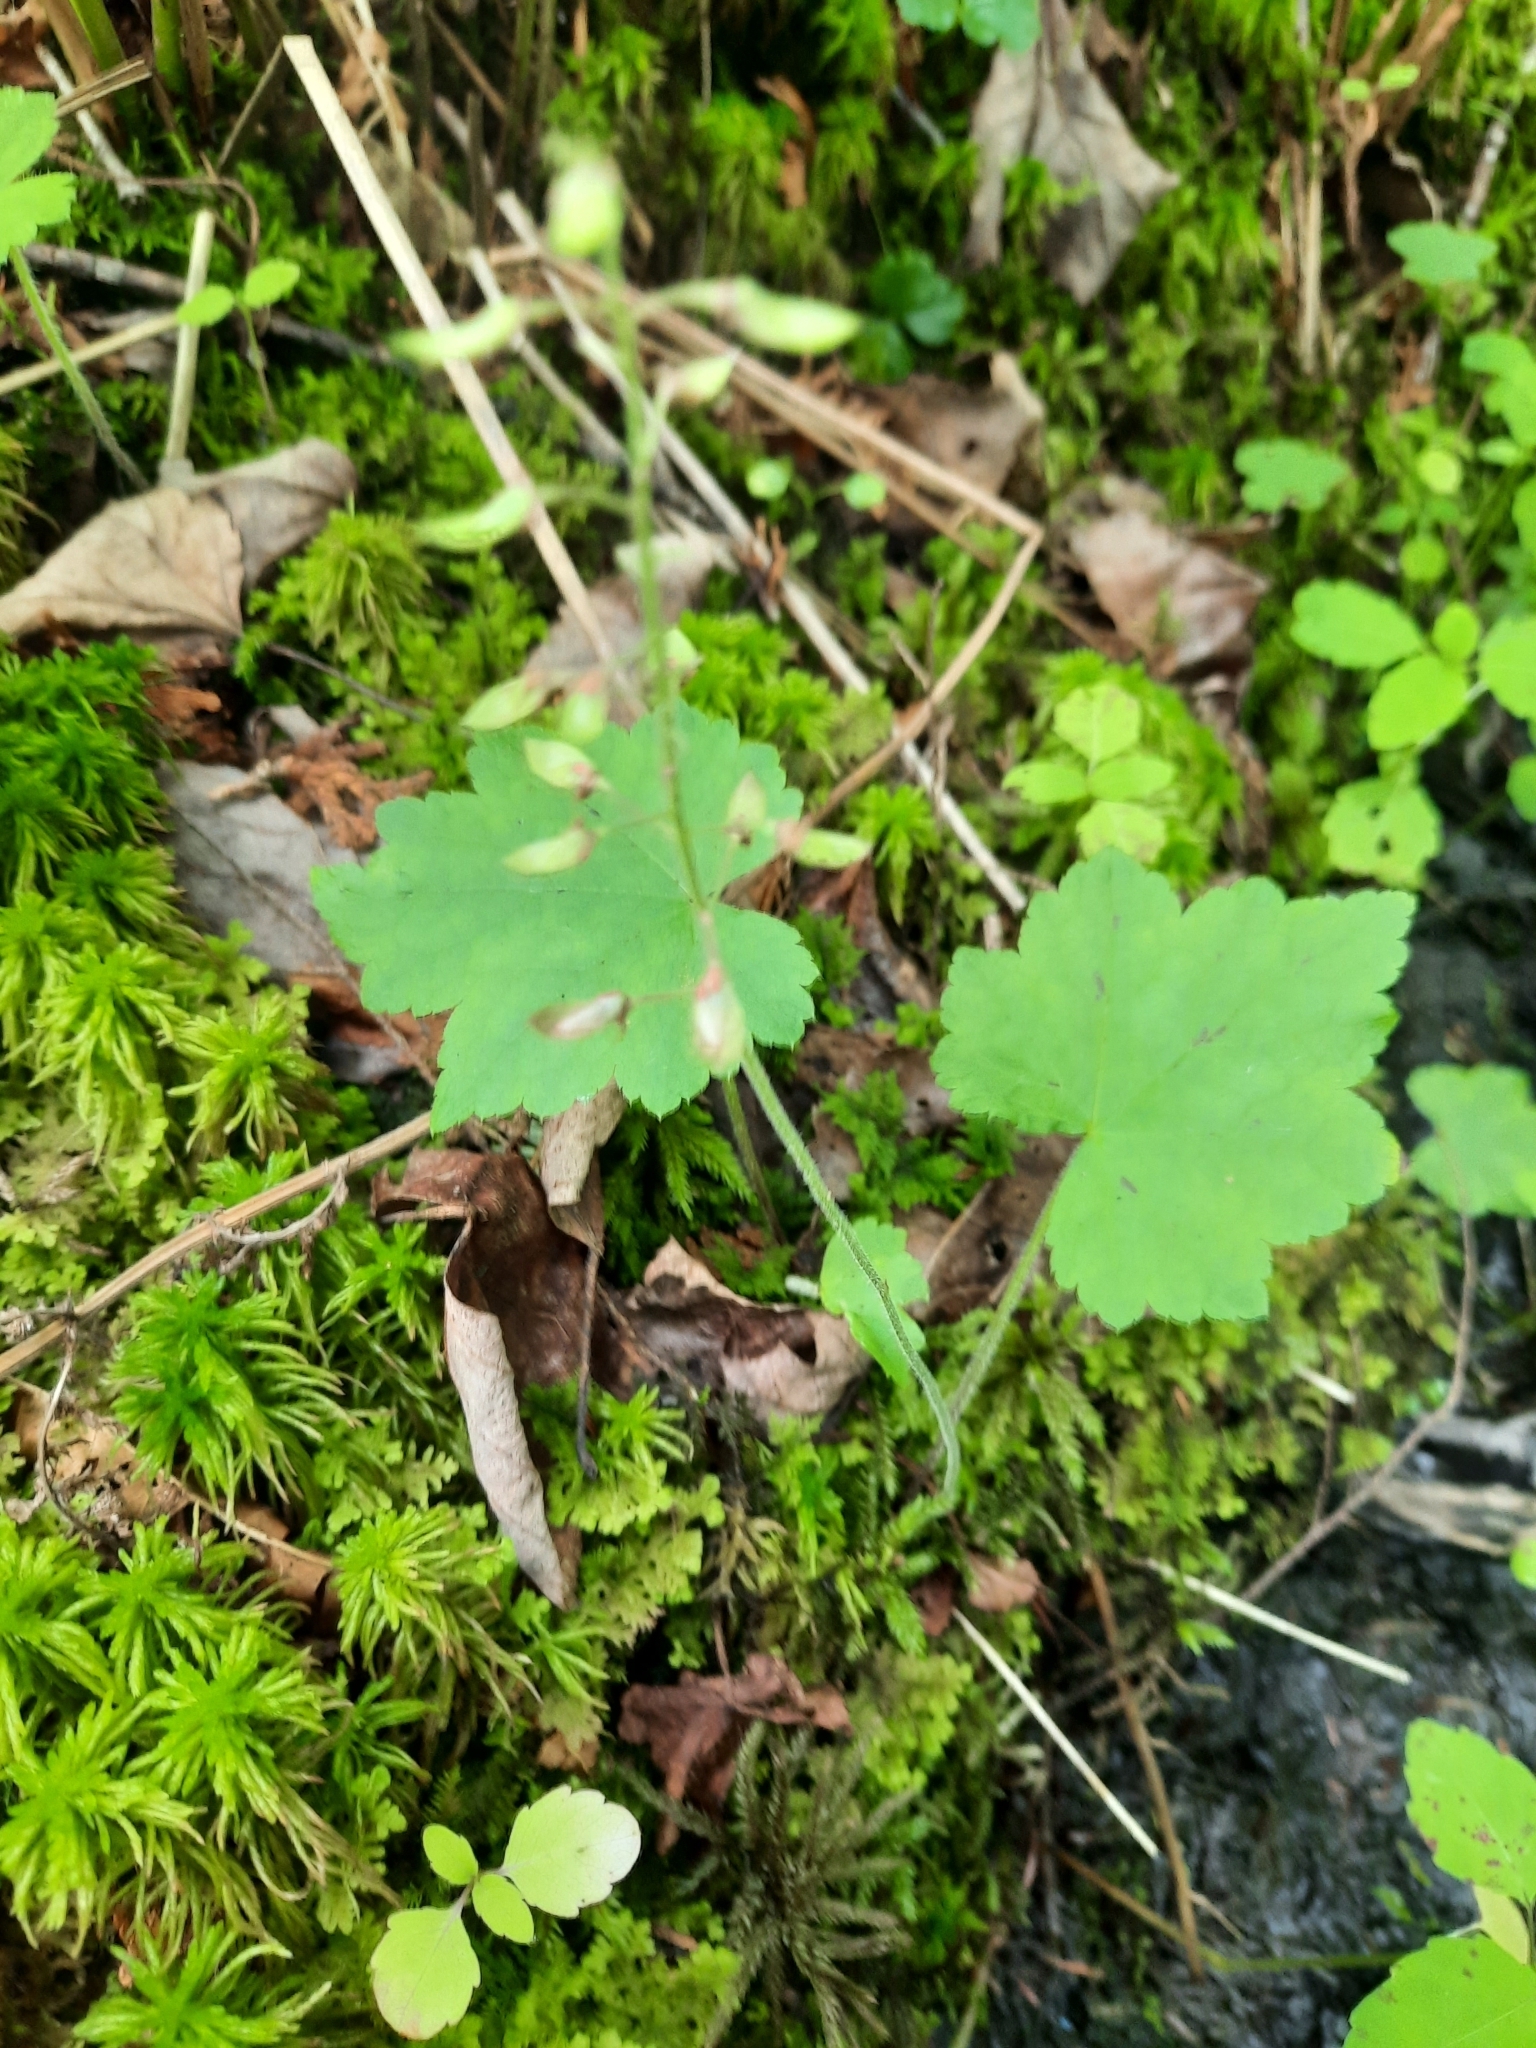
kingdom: Plantae
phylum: Tracheophyta
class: Magnoliopsida
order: Saxifragales
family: Saxifragaceae
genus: Tiarella
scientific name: Tiarella stolonifera
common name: Stoloniferous foamflower
